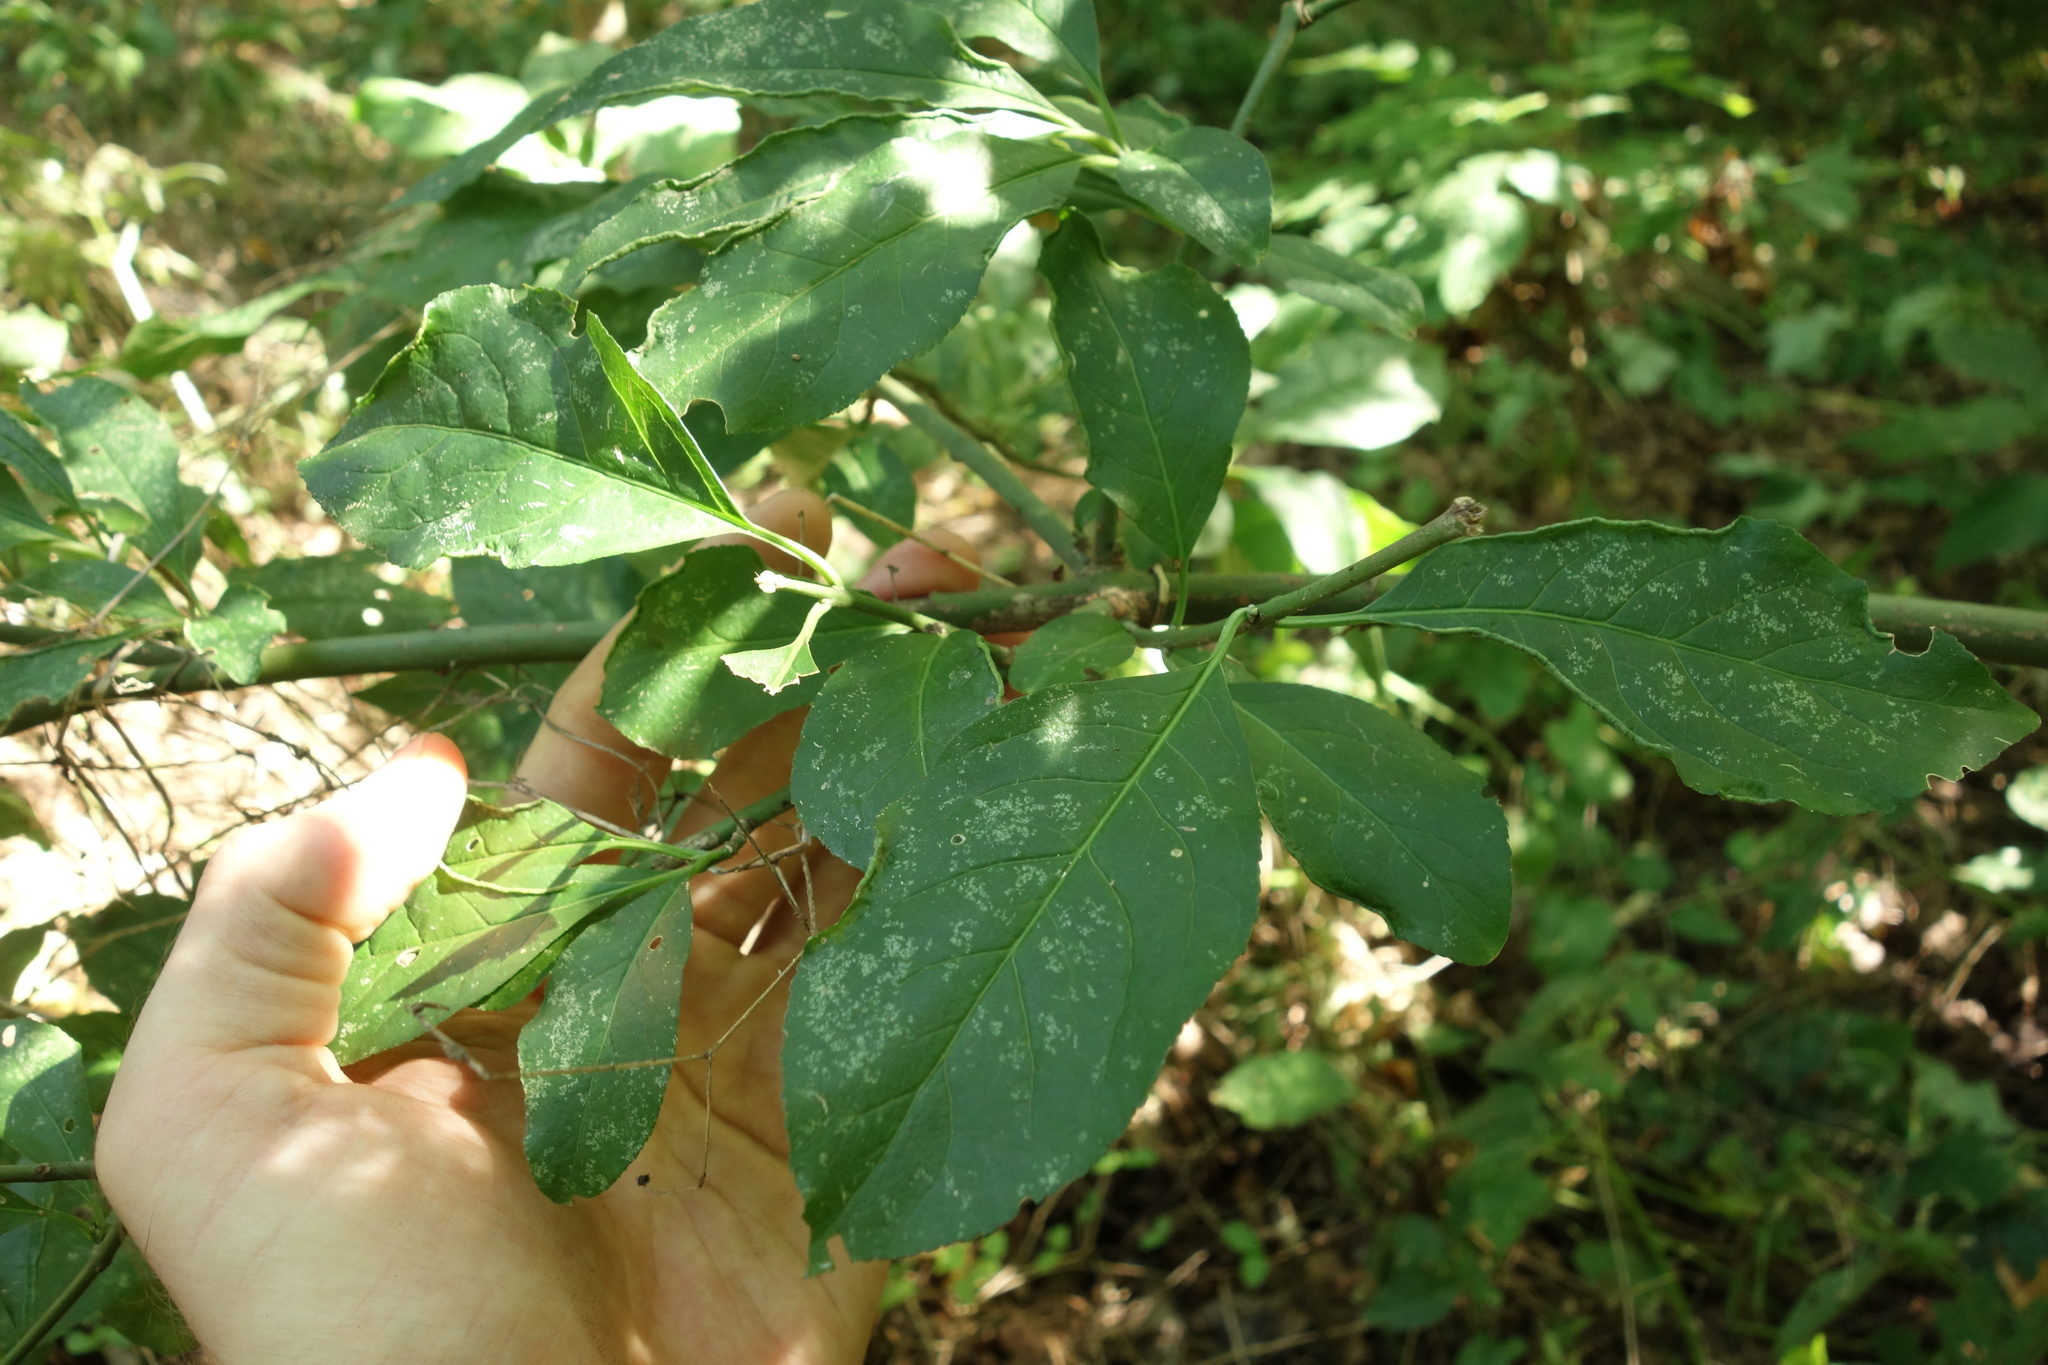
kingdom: Plantae
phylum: Tracheophyta
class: Magnoliopsida
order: Celastrales
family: Celastraceae
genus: Euonymus
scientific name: Euonymus europaeus
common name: Spindle
